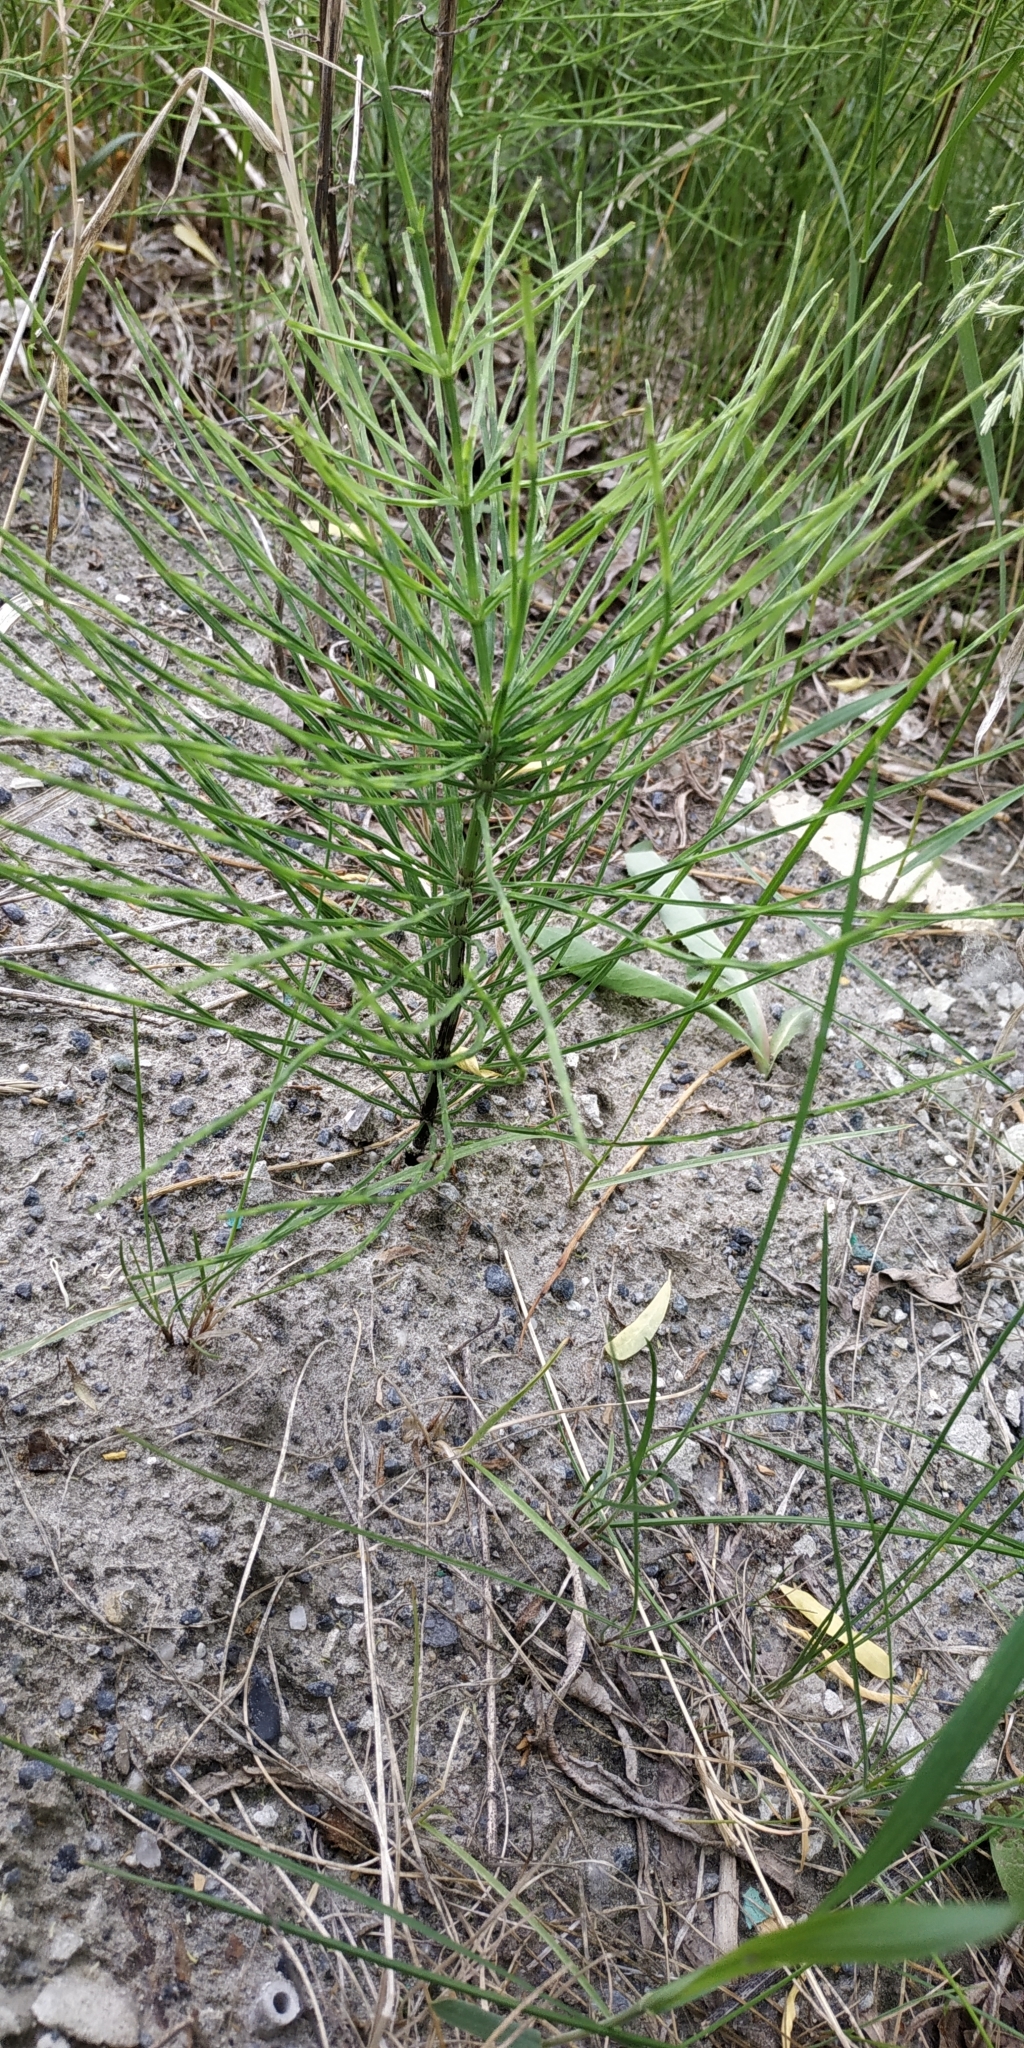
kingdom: Plantae
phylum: Tracheophyta
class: Polypodiopsida
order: Equisetales
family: Equisetaceae
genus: Equisetum
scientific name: Equisetum arvense
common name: Field horsetail
